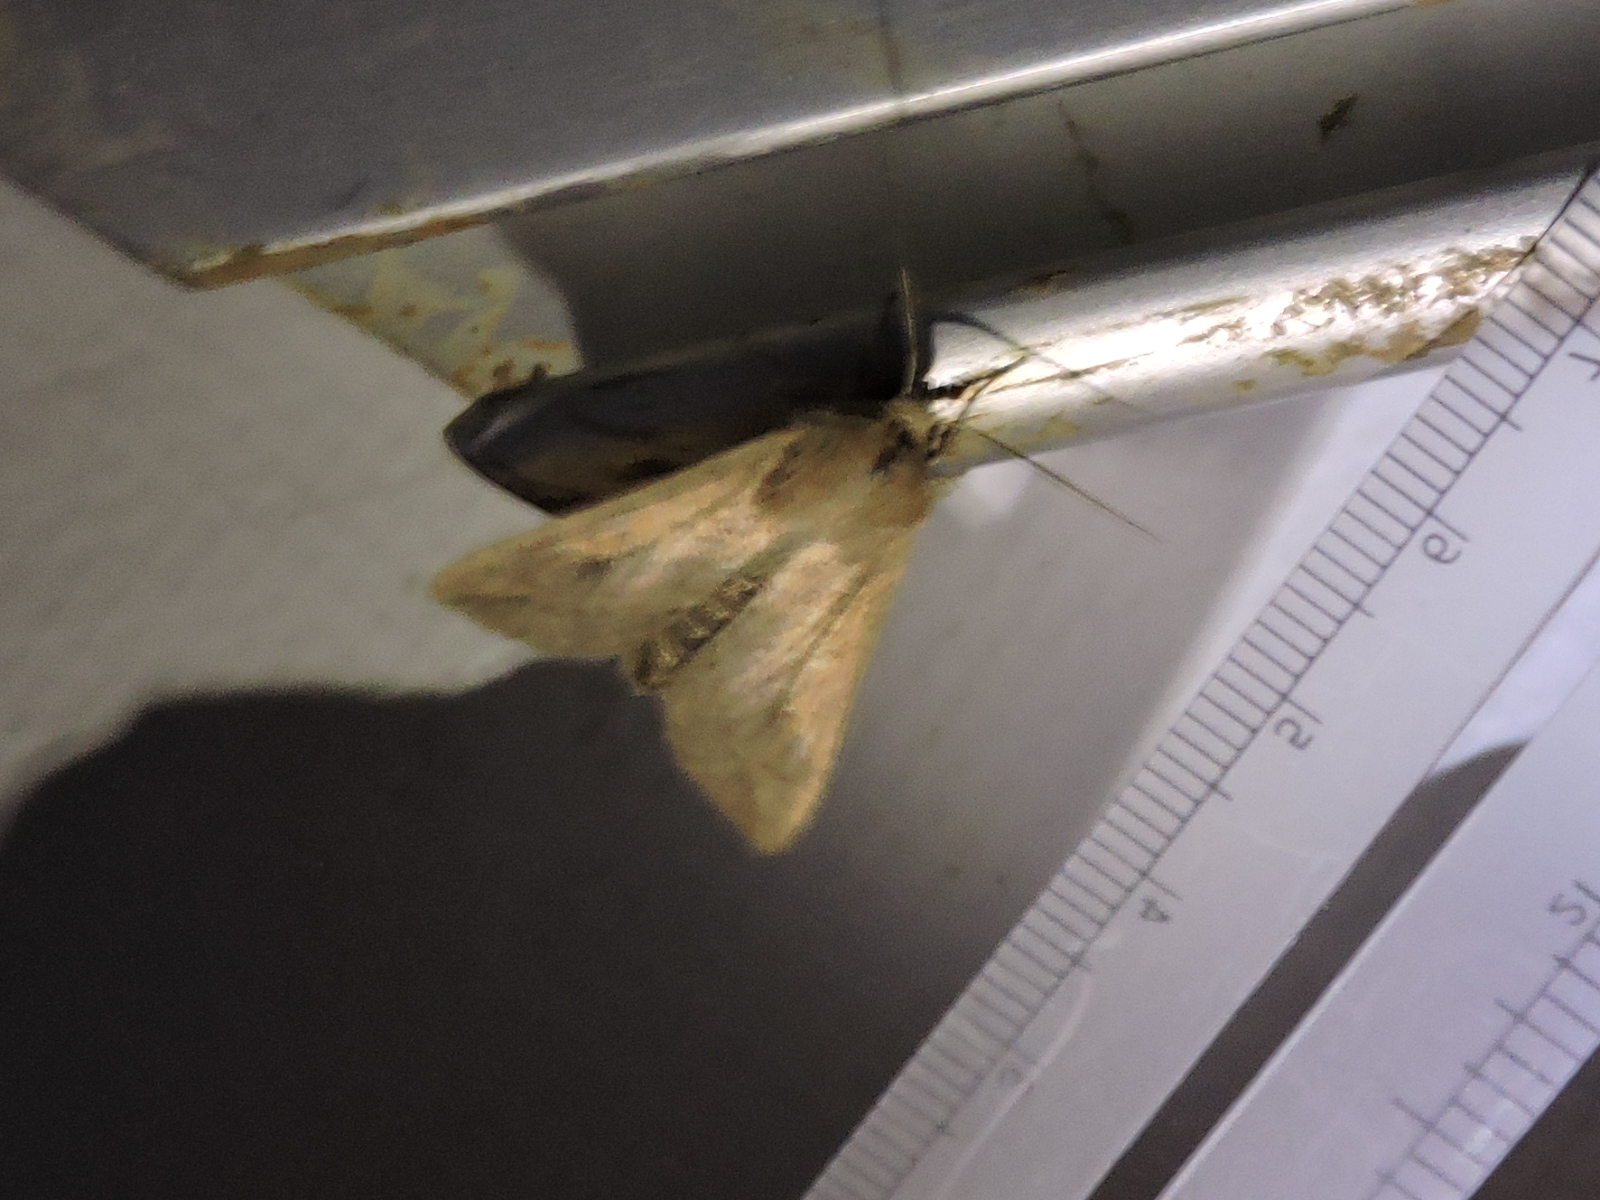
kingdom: Animalia
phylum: Arthropoda
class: Insecta
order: Lepidoptera
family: Noctuidae
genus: Mythimna
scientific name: Mythimna unipuncta
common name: White-speck
